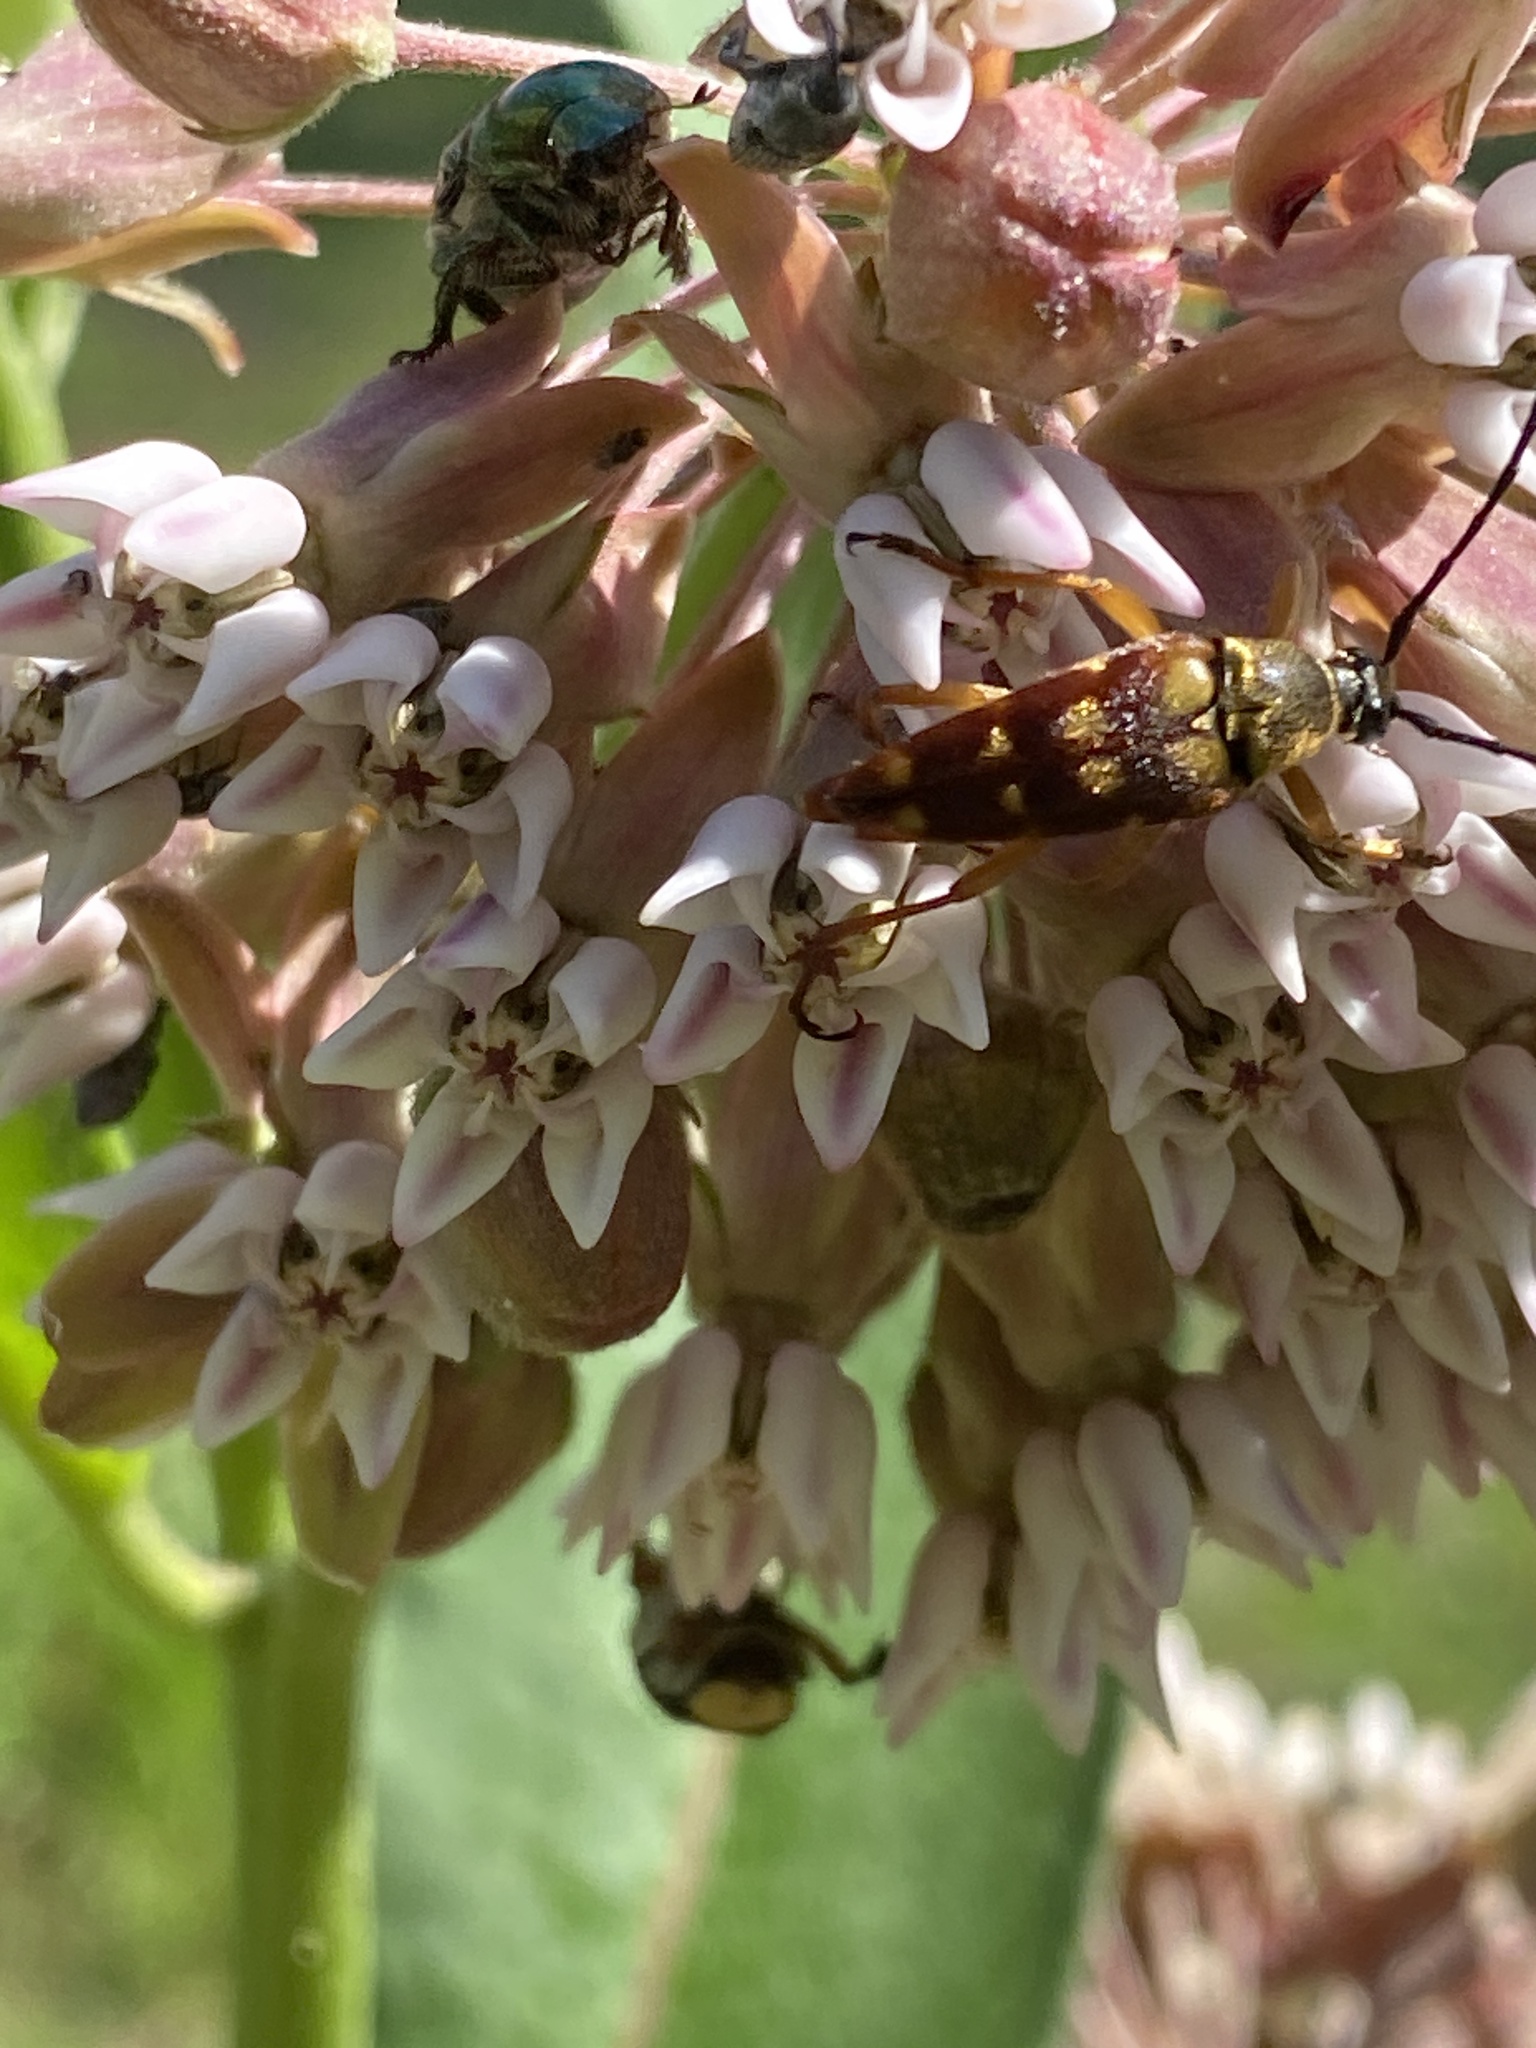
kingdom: Animalia
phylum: Arthropoda
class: Insecta
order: Coleoptera
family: Cerambycidae
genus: Typocerus
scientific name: Typocerus velutinus
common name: Banded longhorn beetle
